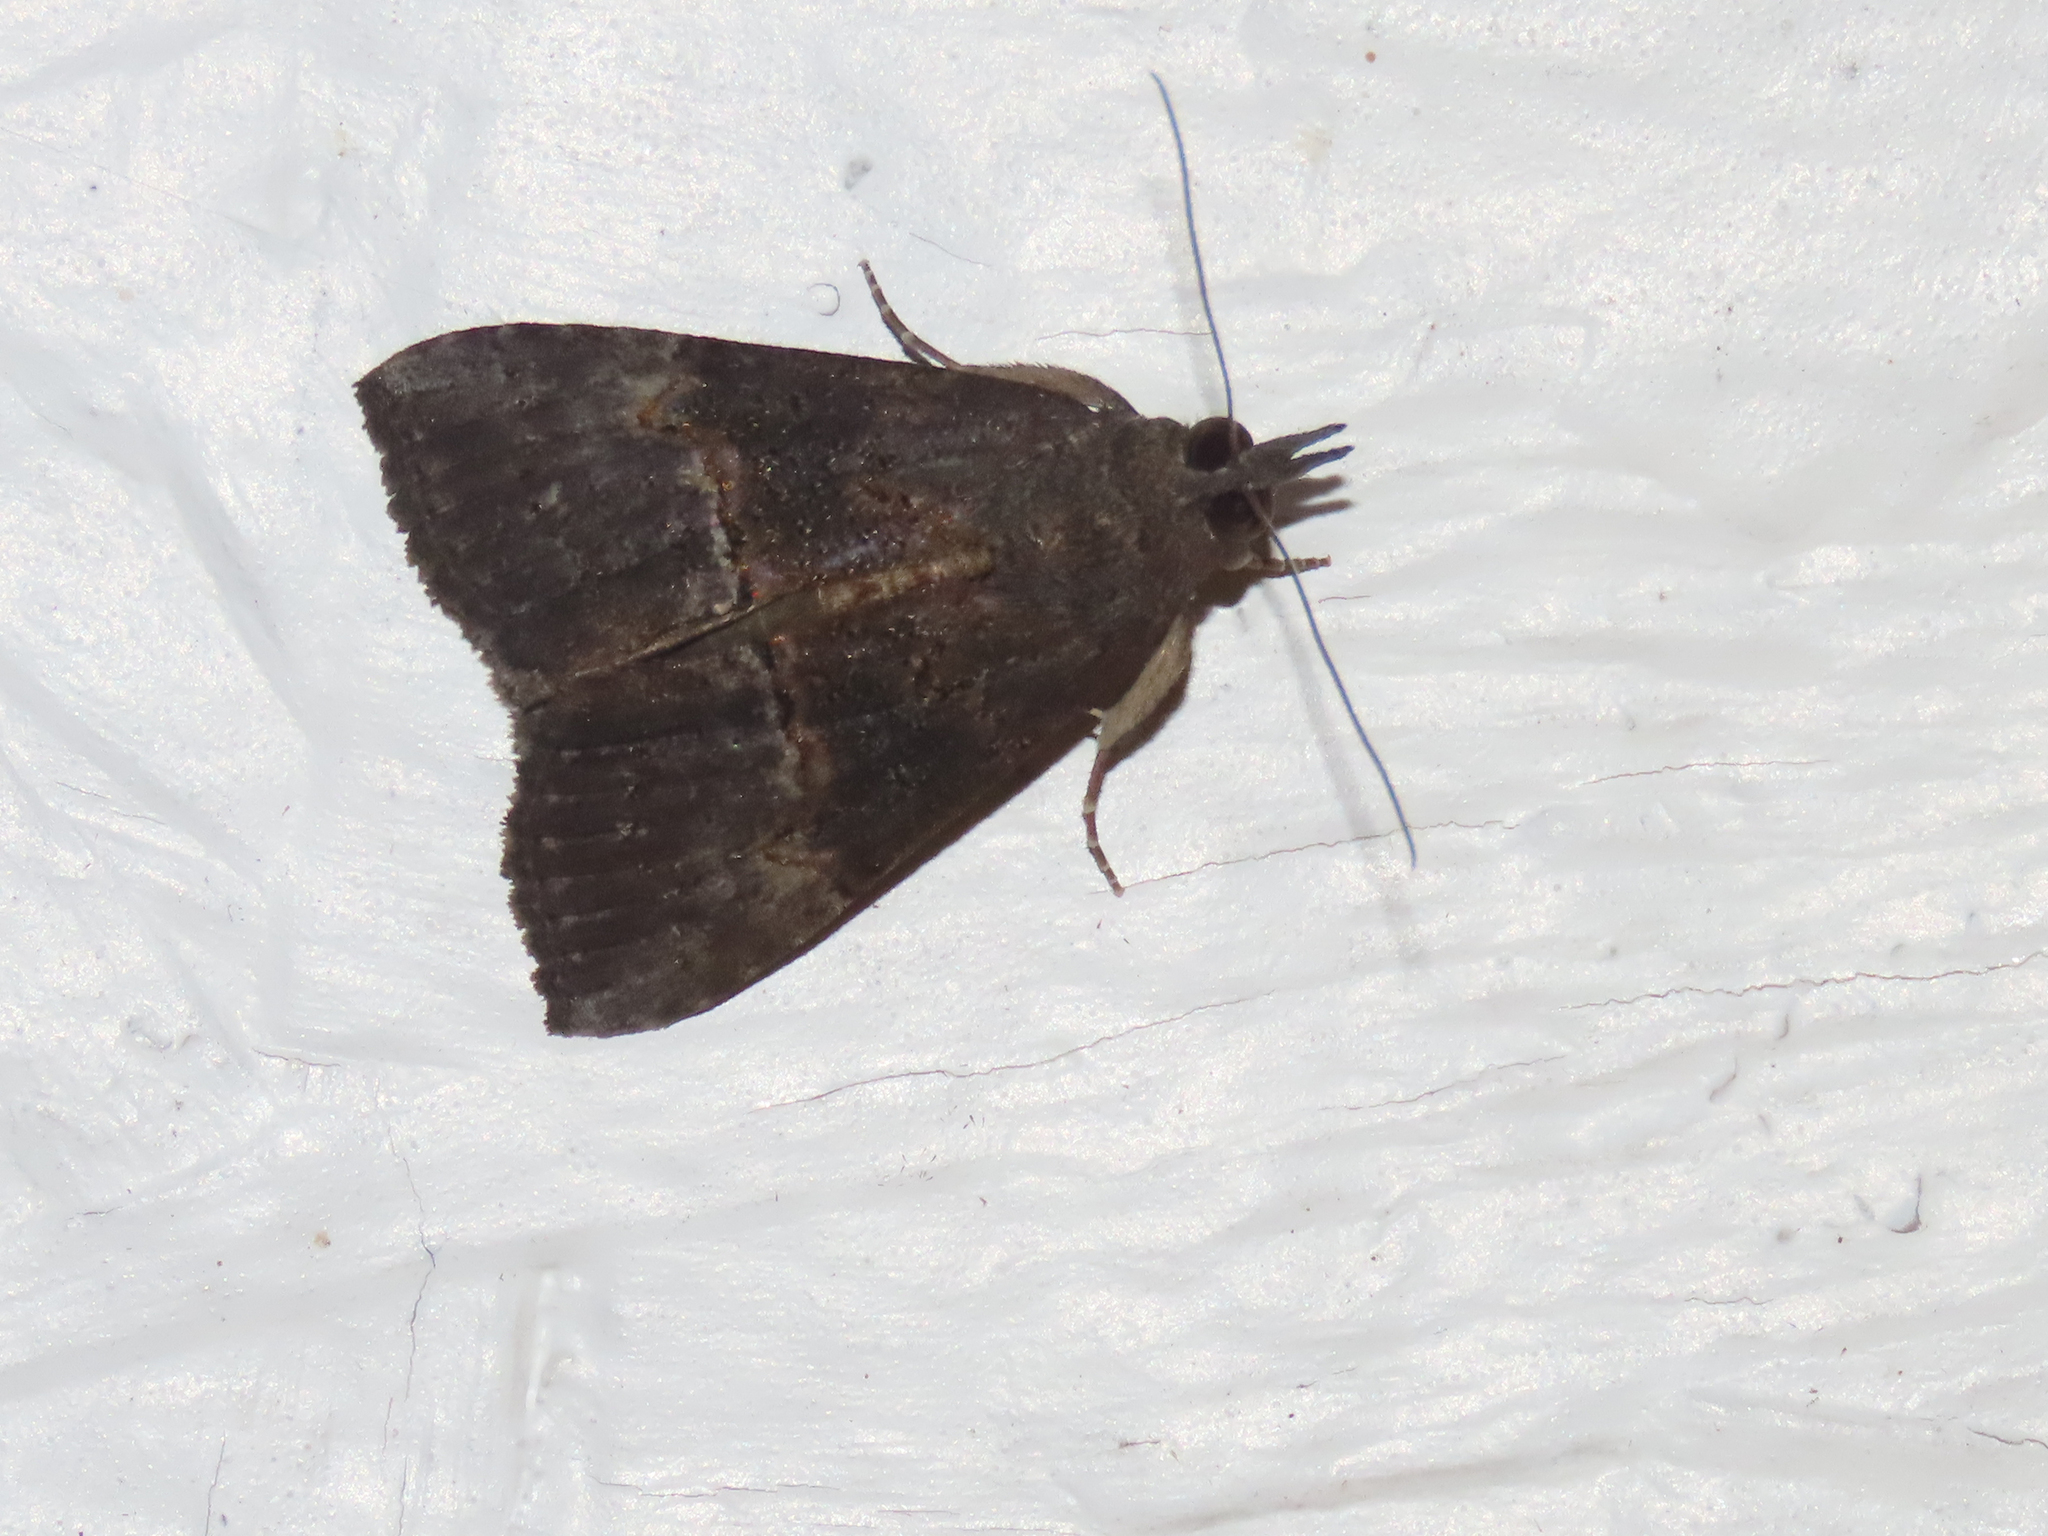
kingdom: Animalia
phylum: Arthropoda
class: Insecta
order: Lepidoptera
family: Erebidae
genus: Hypena
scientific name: Hypena scabra
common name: Green cloverworm
